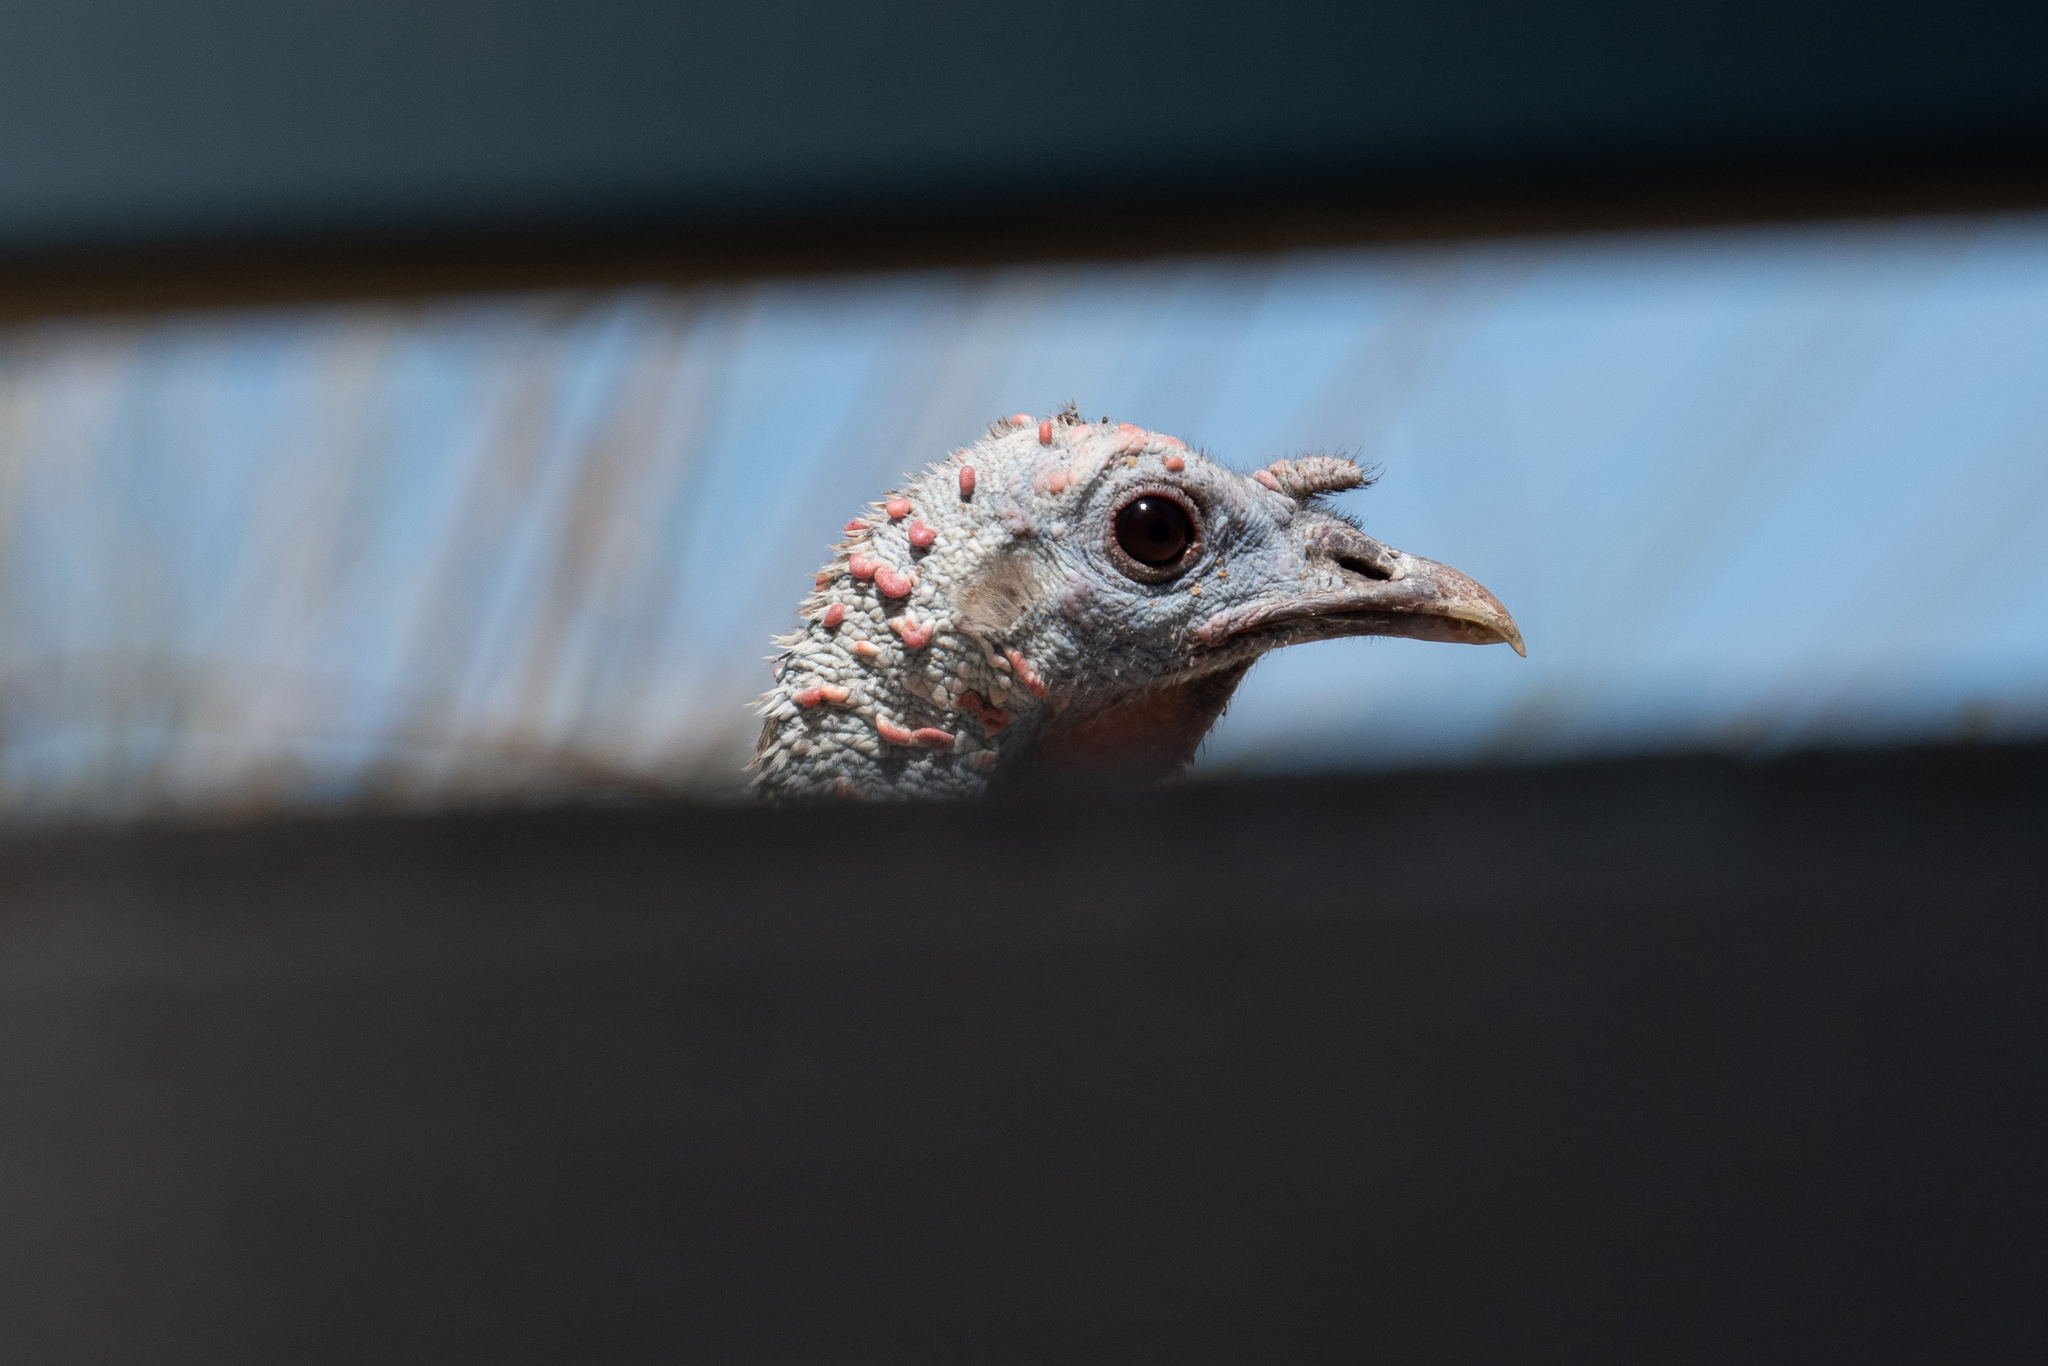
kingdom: Animalia
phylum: Chordata
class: Aves
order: Galliformes
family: Phasianidae
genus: Meleagris
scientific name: Meleagris gallopavo
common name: Wild turkey
